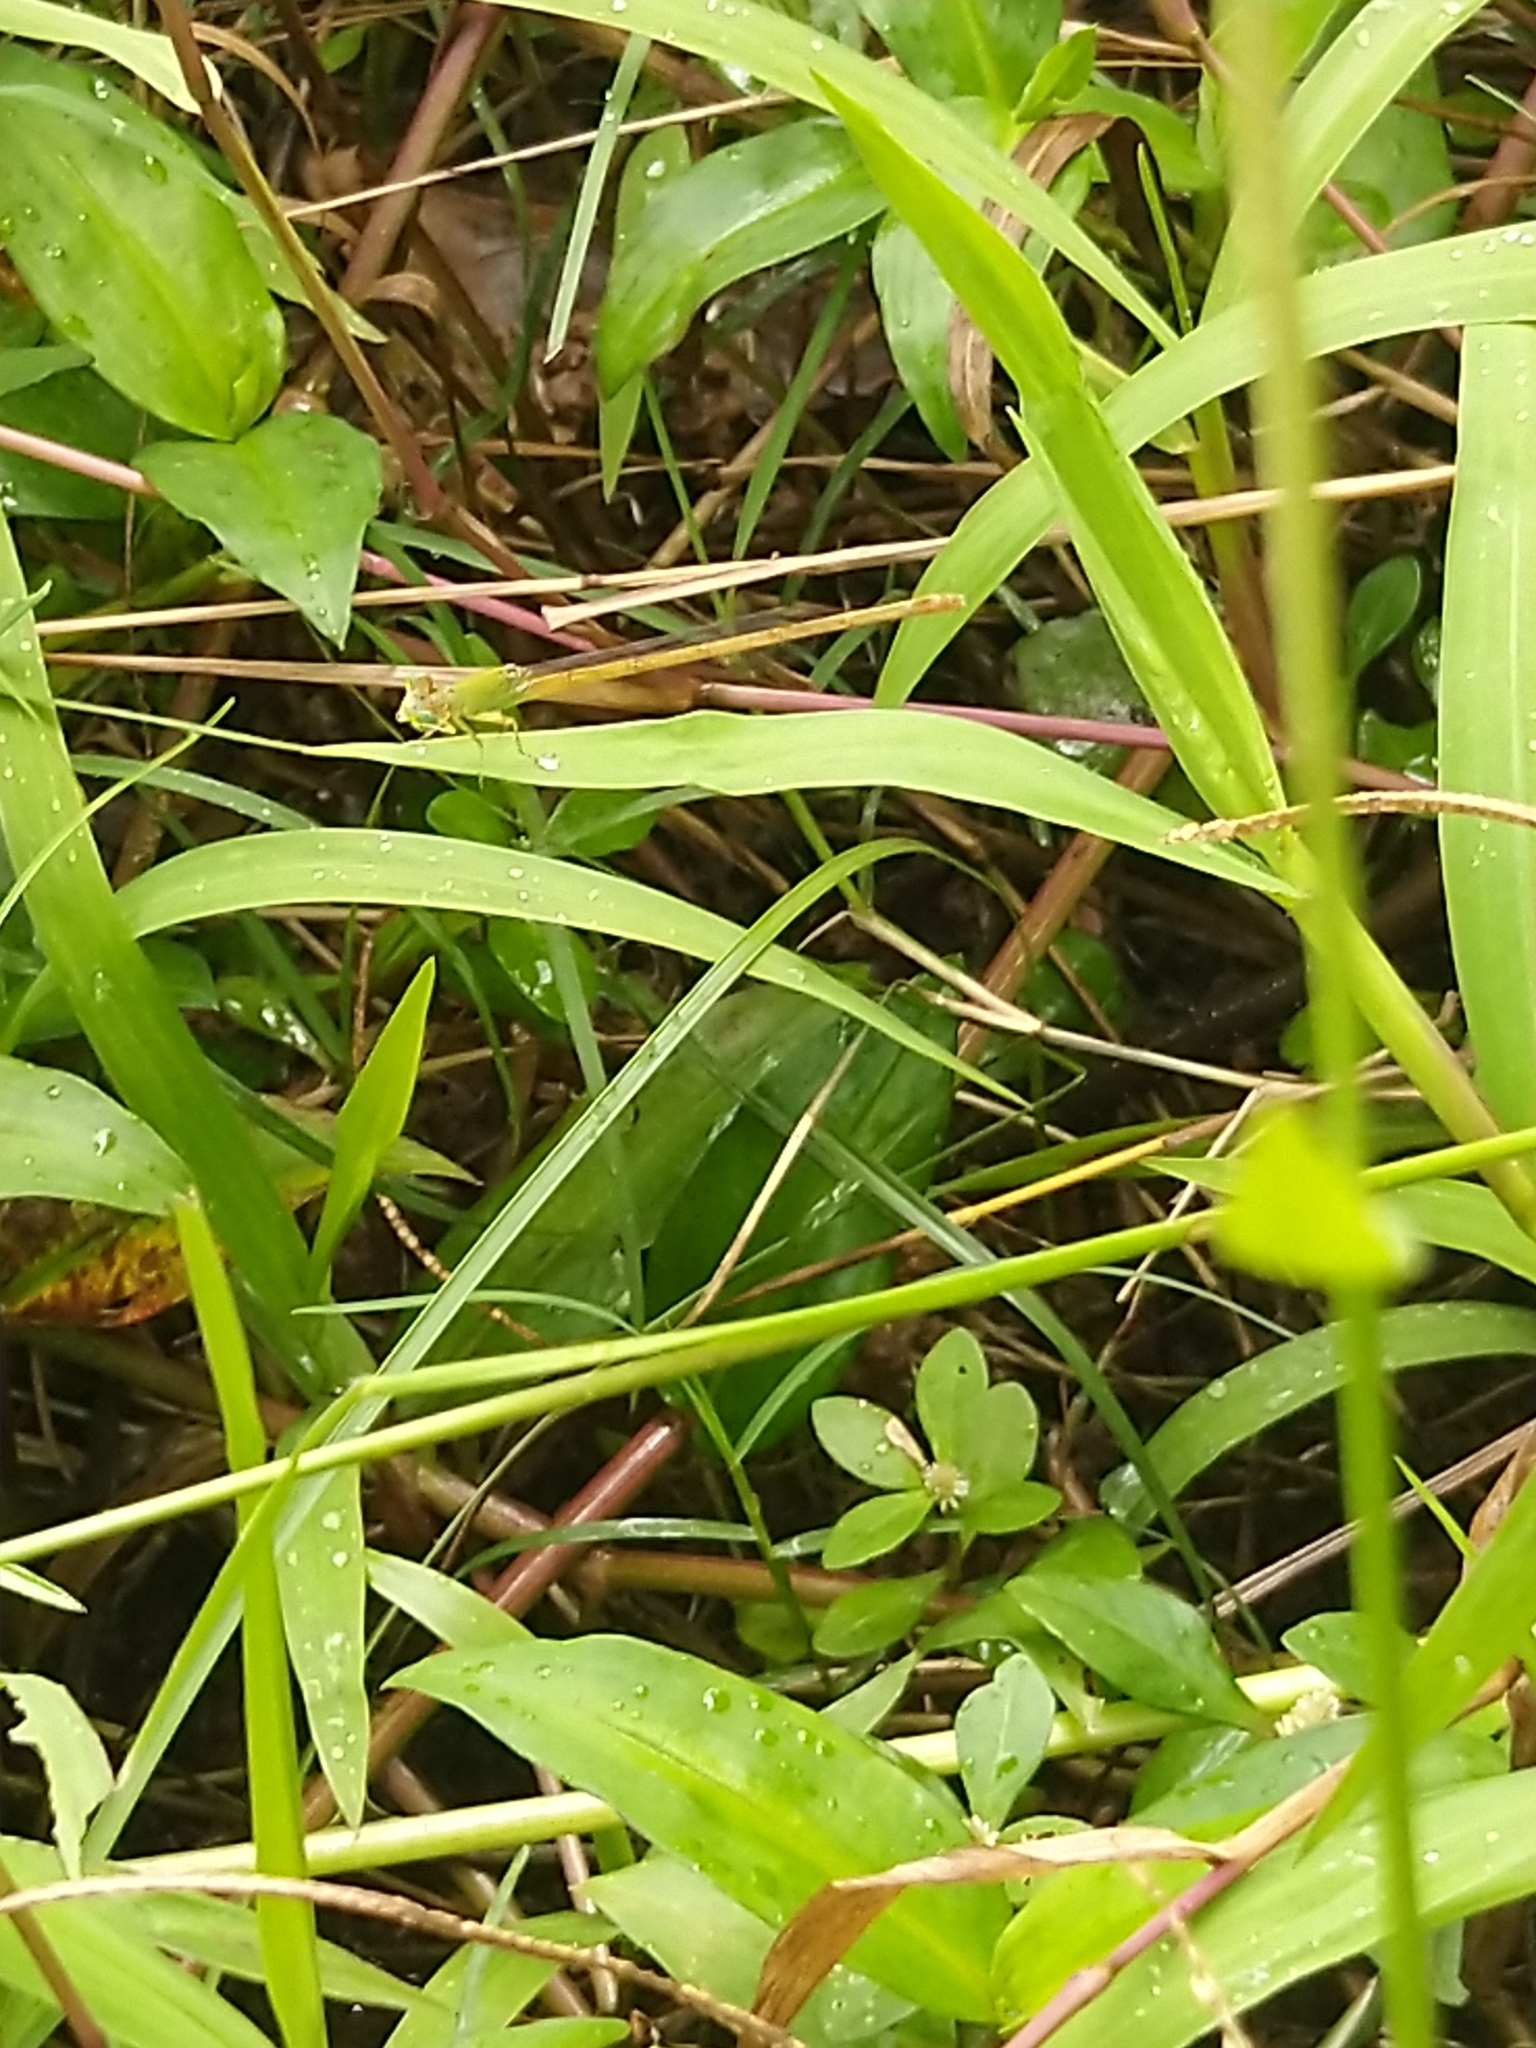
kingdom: Animalia
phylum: Arthropoda
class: Insecta
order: Odonata
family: Coenagrionidae
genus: Ceriagrion
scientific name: Ceriagrion coromandelianum
